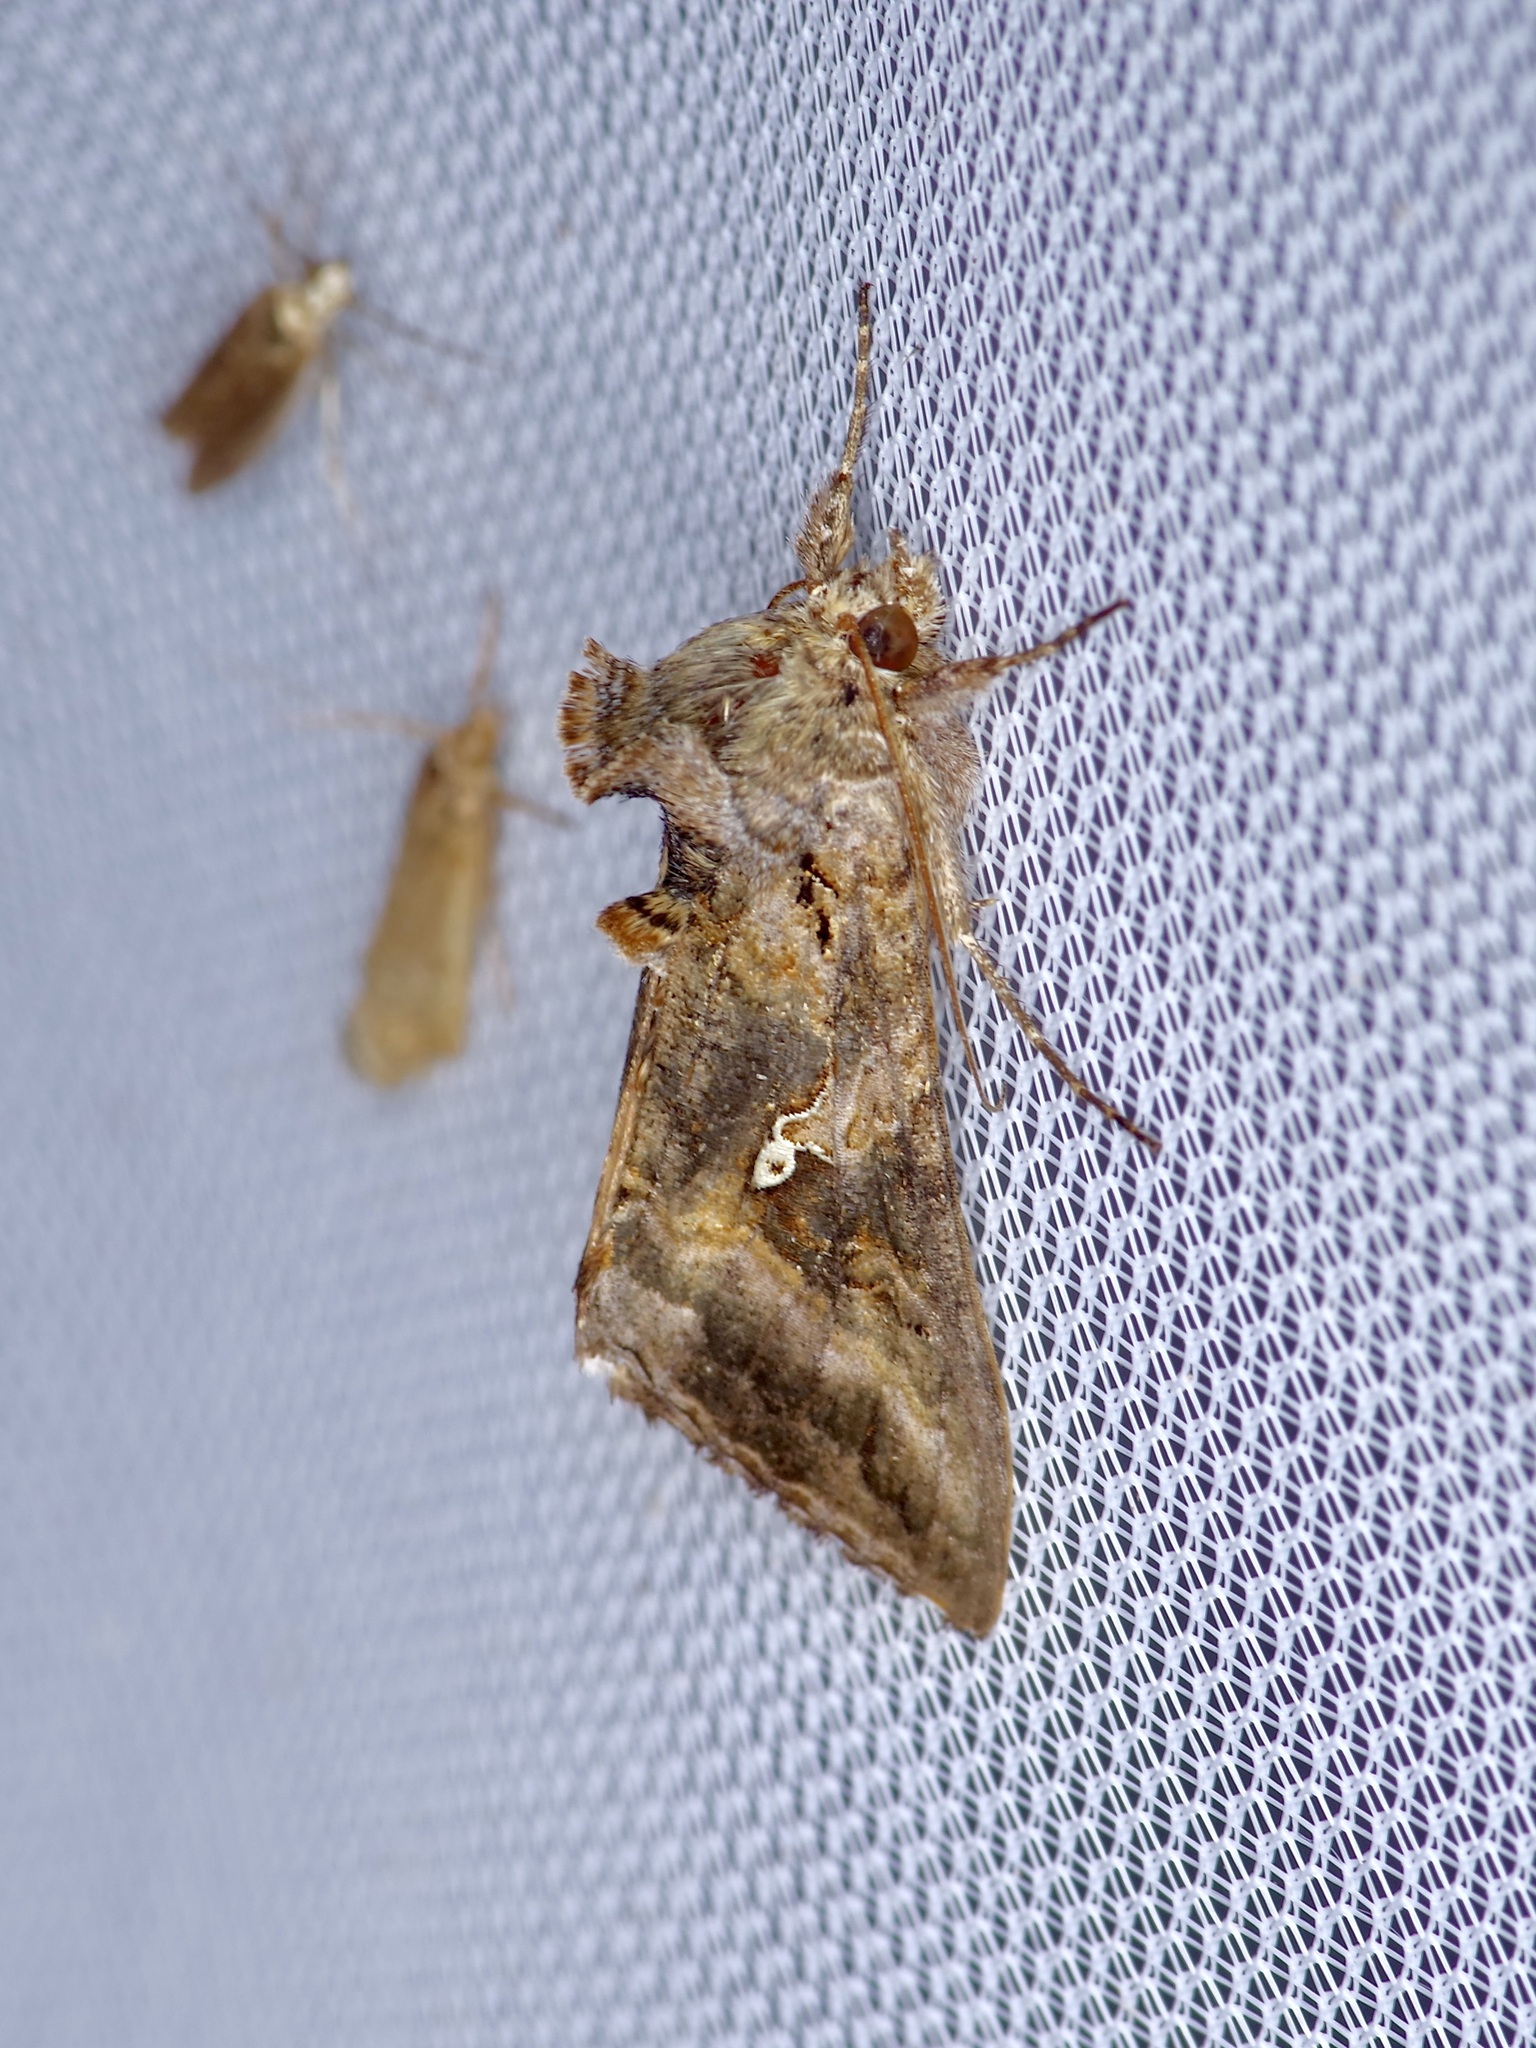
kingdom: Animalia
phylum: Arthropoda
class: Insecta
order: Lepidoptera
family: Noctuidae
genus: Rachiplusia
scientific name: Rachiplusia ou
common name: Gray looper moth
